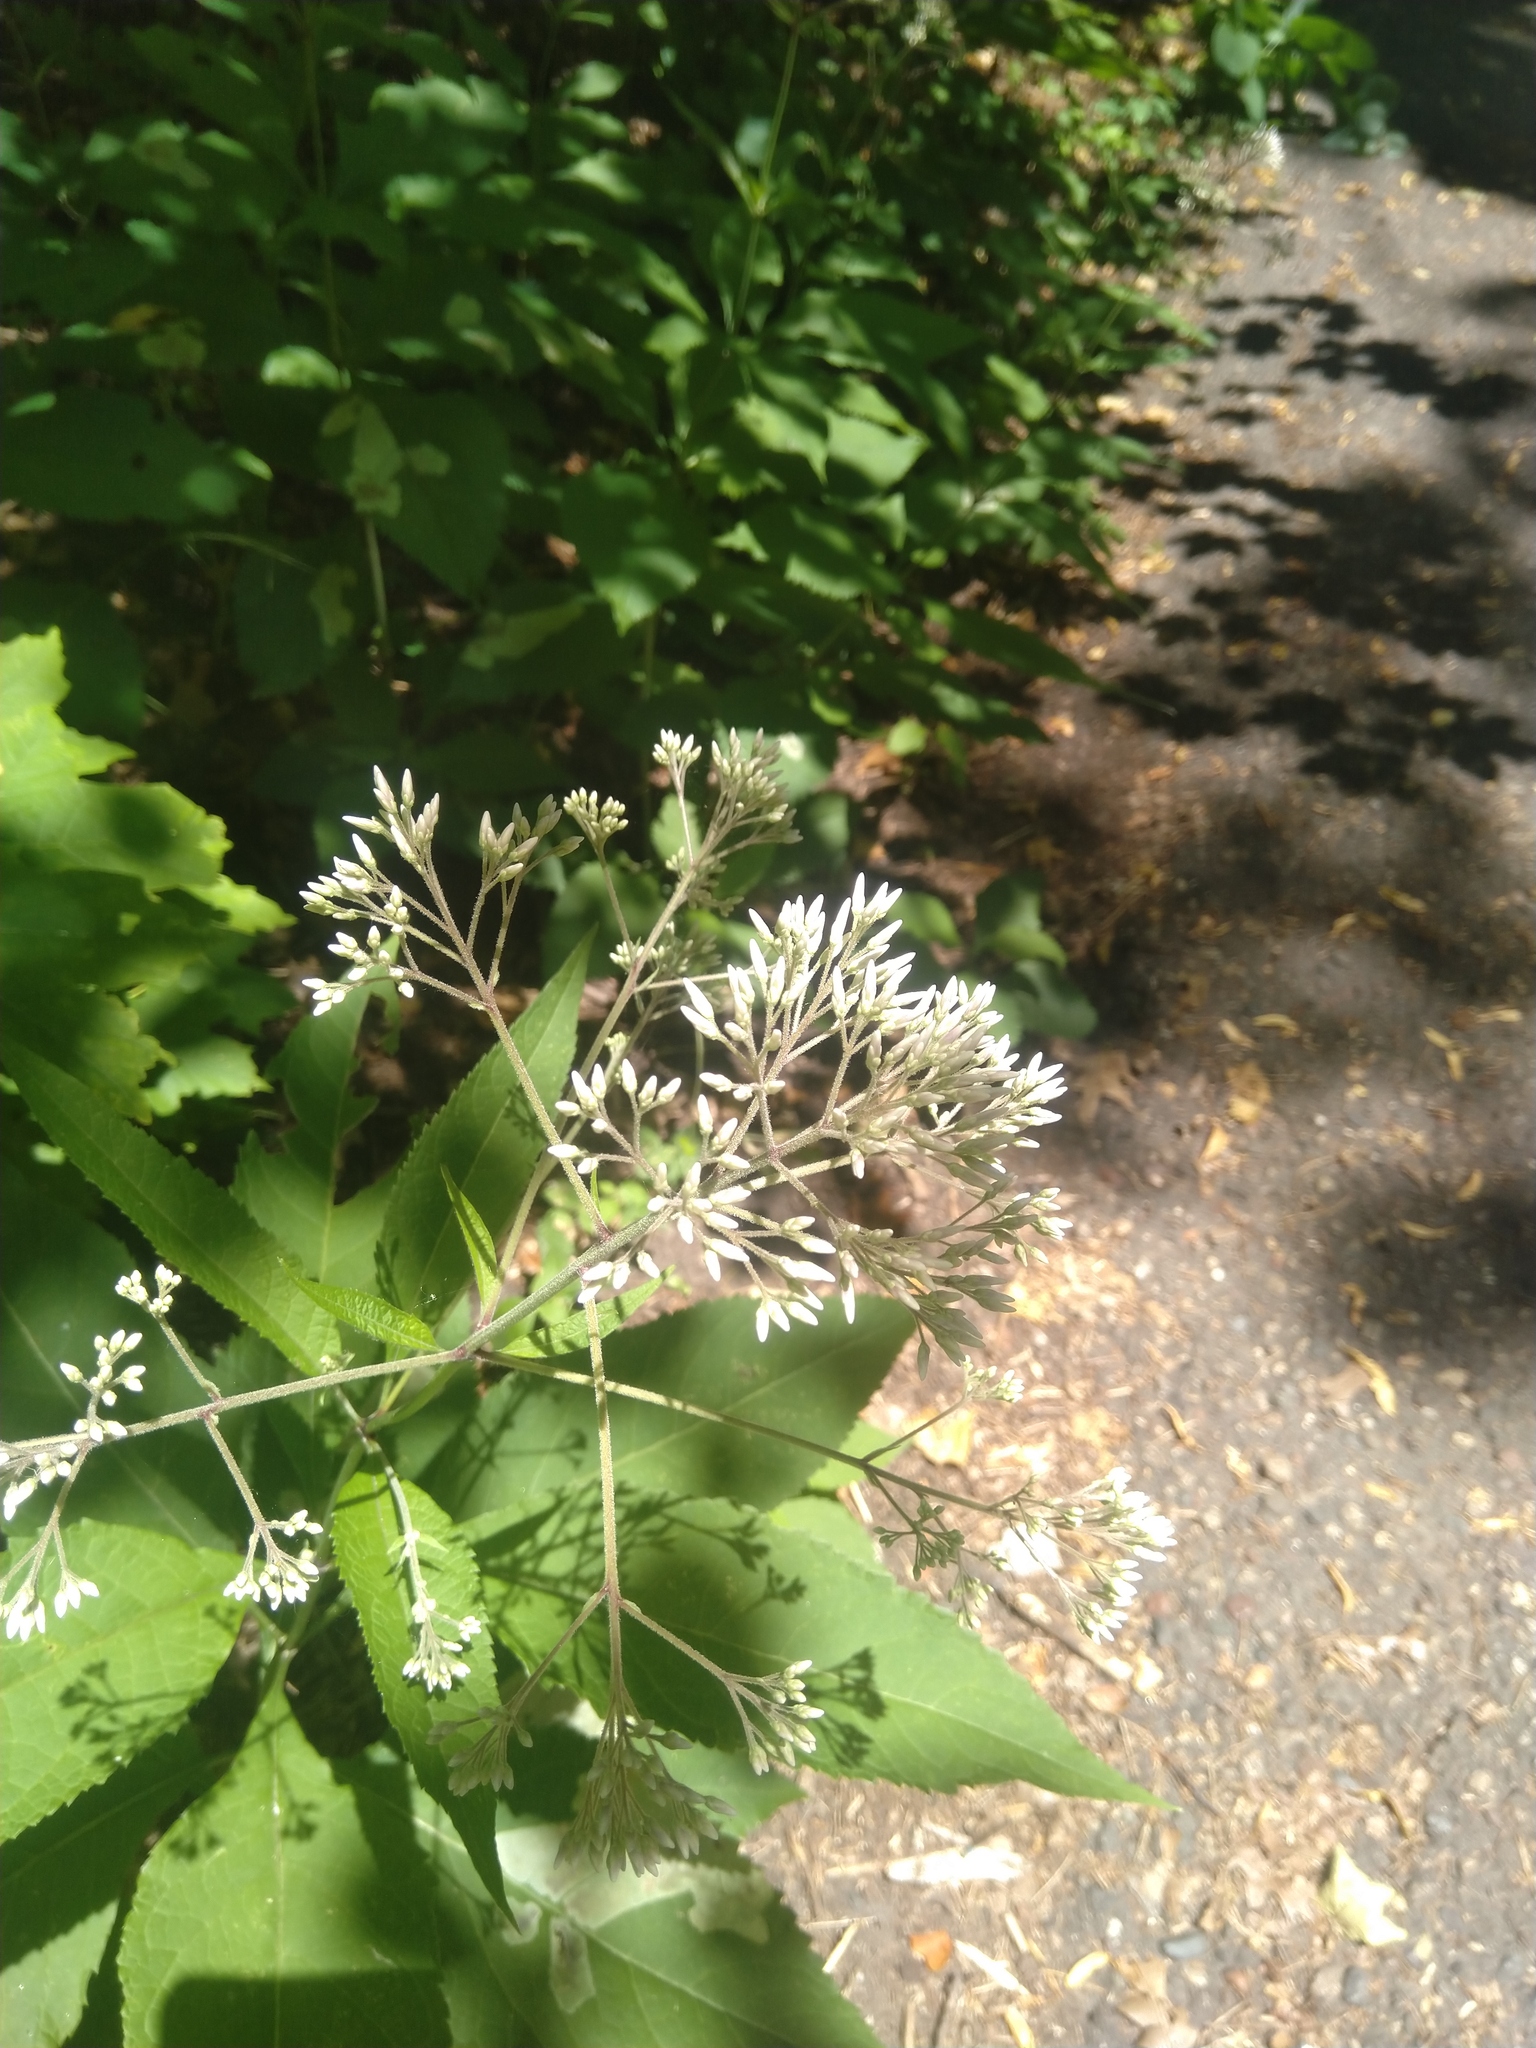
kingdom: Plantae
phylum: Tracheophyta
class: Magnoliopsida
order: Asterales
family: Asteraceae
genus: Eutrochium
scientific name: Eutrochium purpureum
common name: Gravelroot
